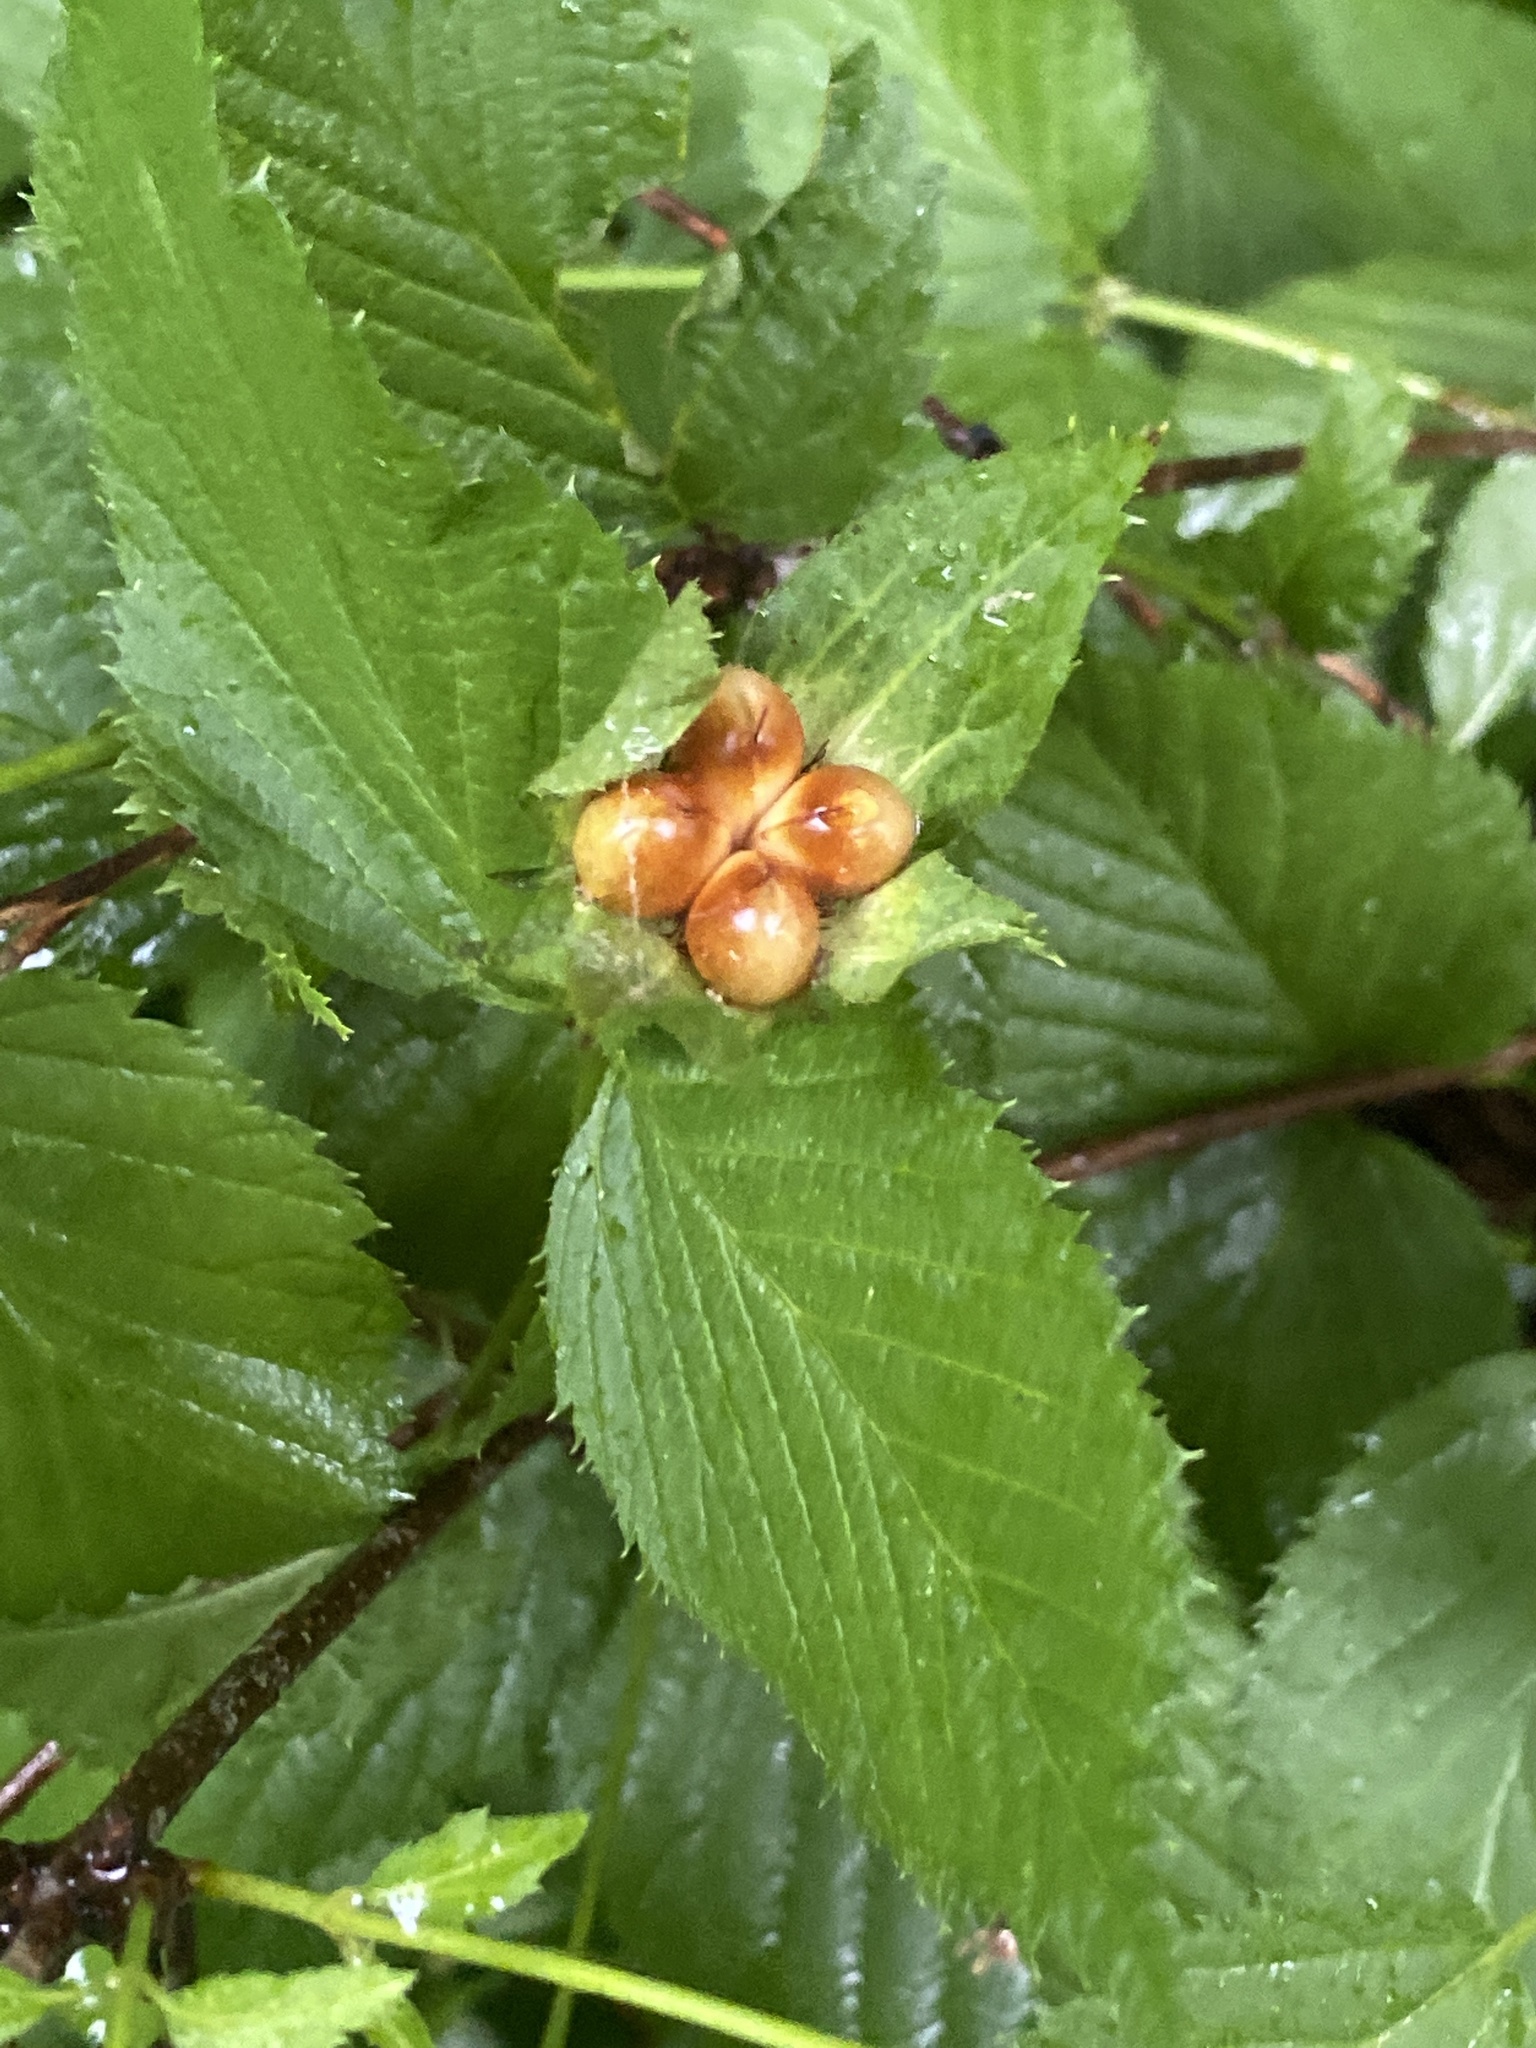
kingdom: Plantae
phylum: Tracheophyta
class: Magnoliopsida
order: Rosales
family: Rosaceae
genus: Rhodotypos
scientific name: Rhodotypos scandens
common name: Jetbead
